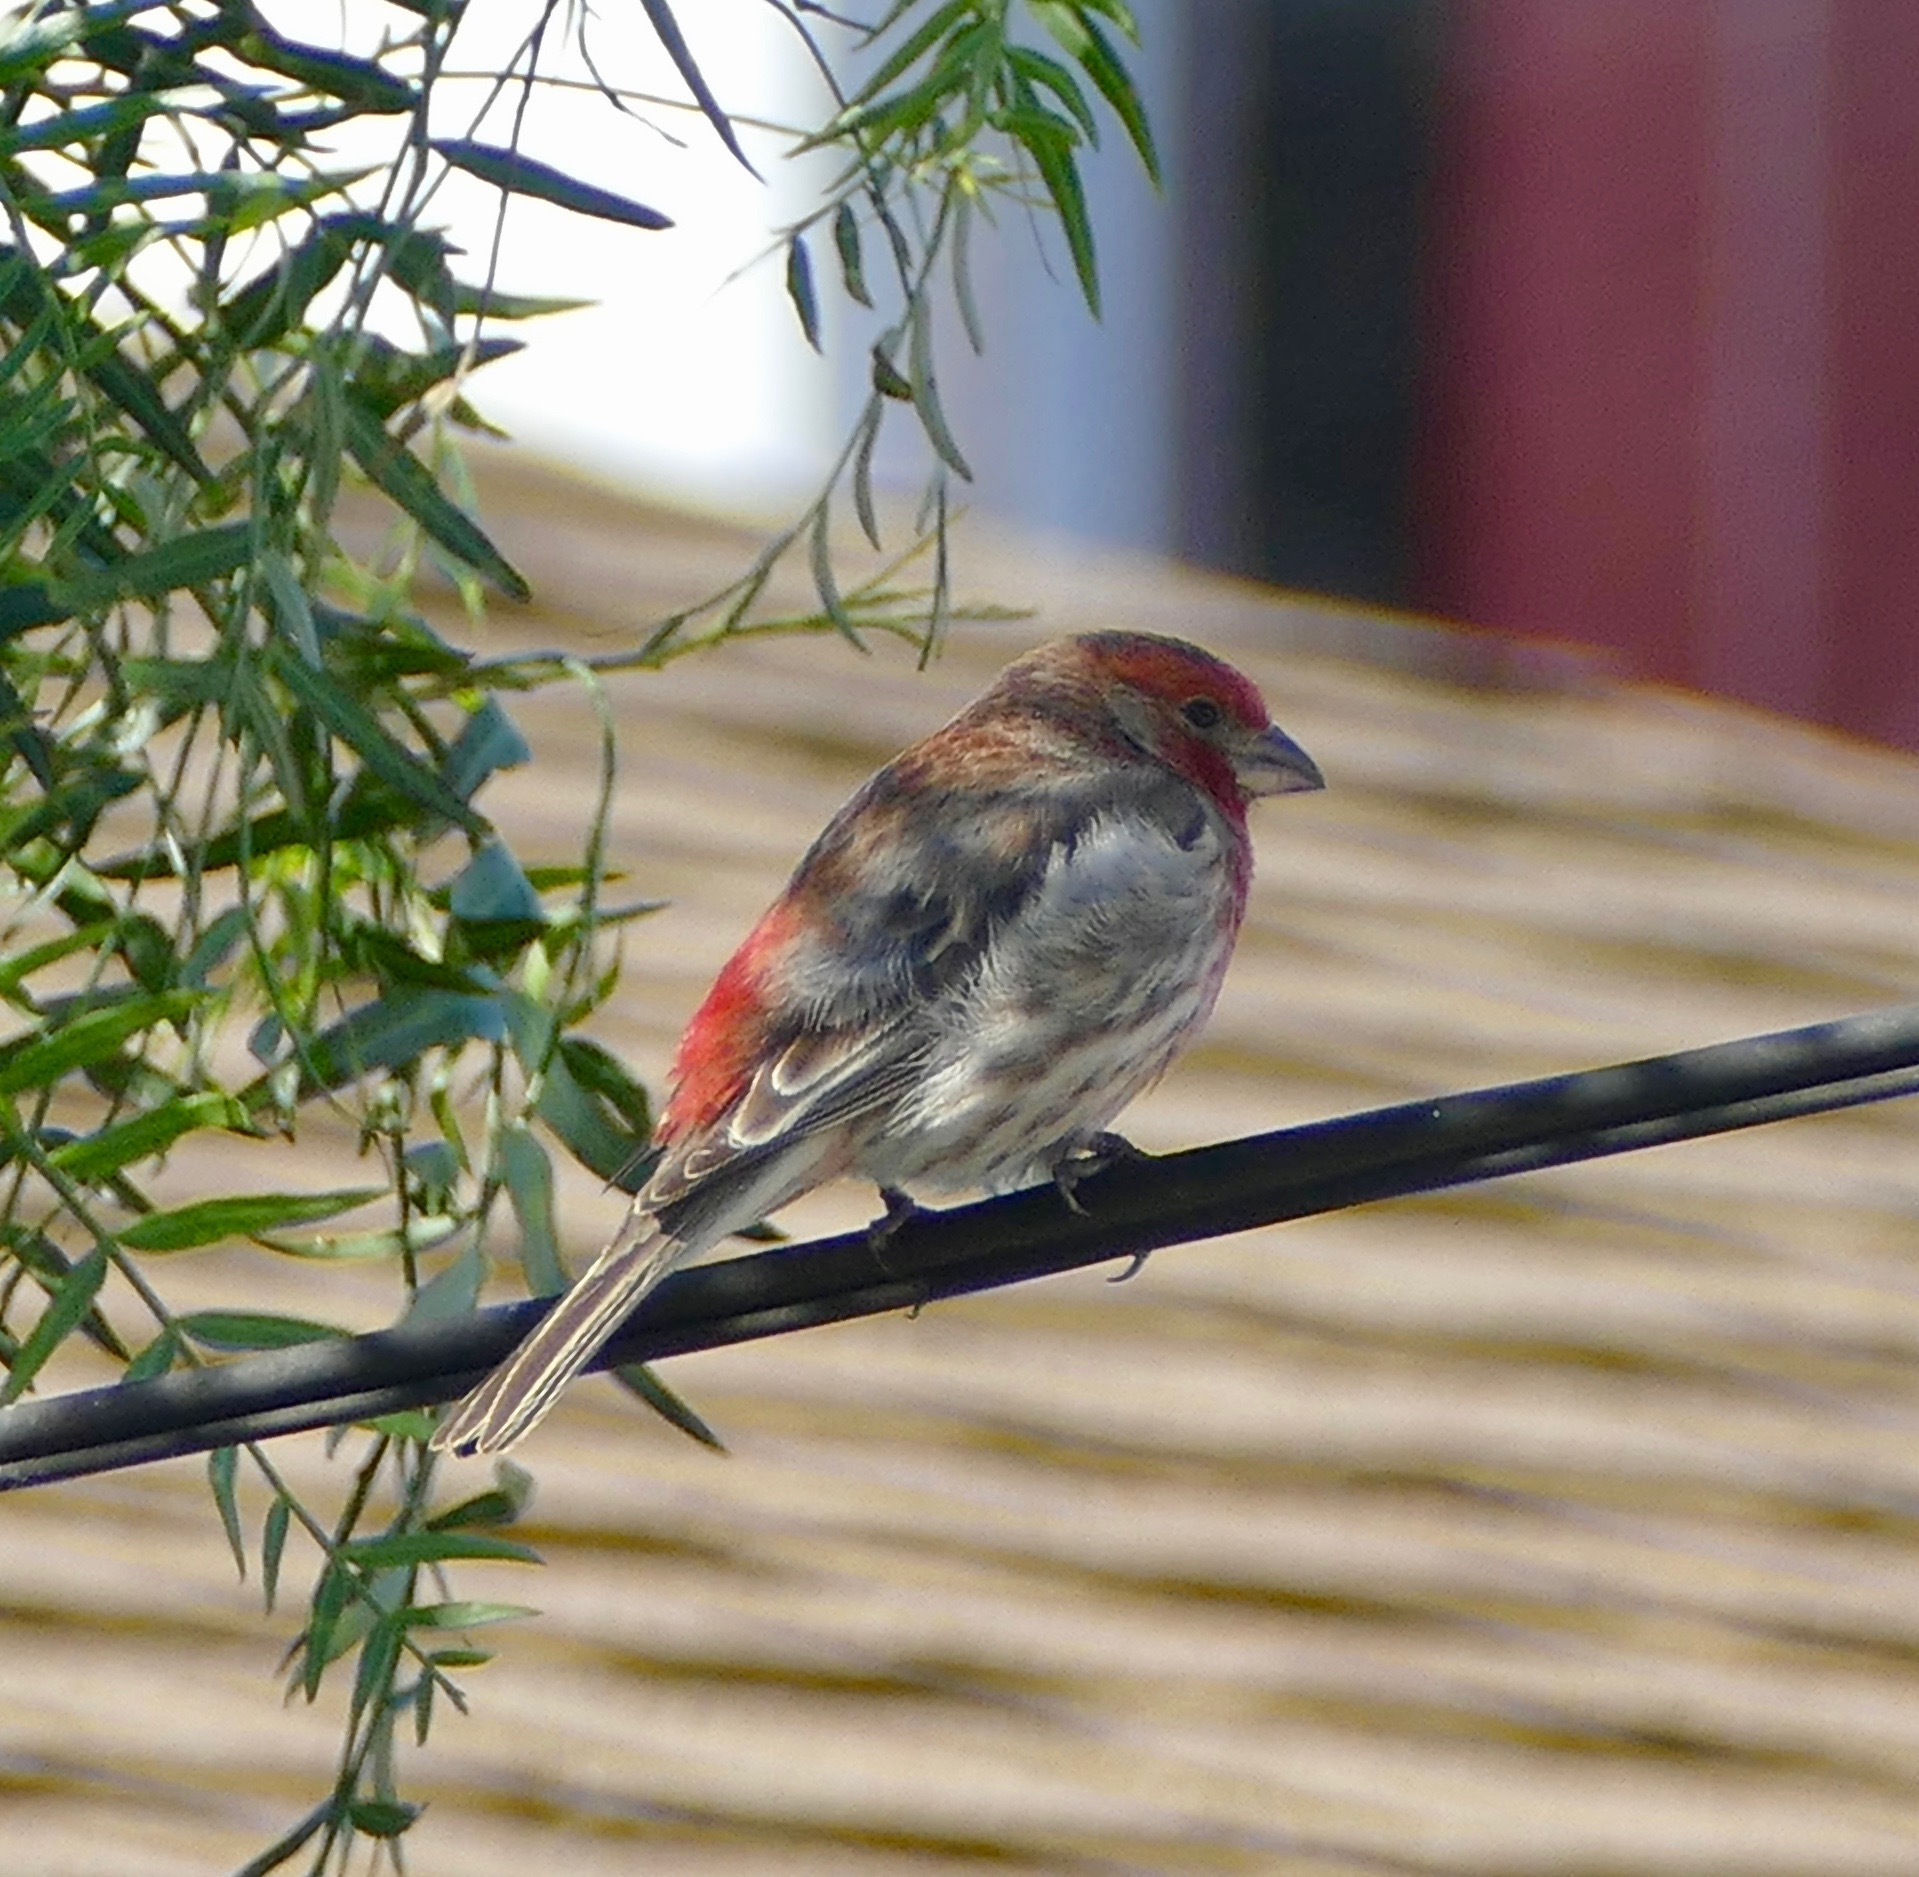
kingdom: Animalia
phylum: Chordata
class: Aves
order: Passeriformes
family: Fringillidae
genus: Haemorhous
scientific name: Haemorhous mexicanus
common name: House finch
